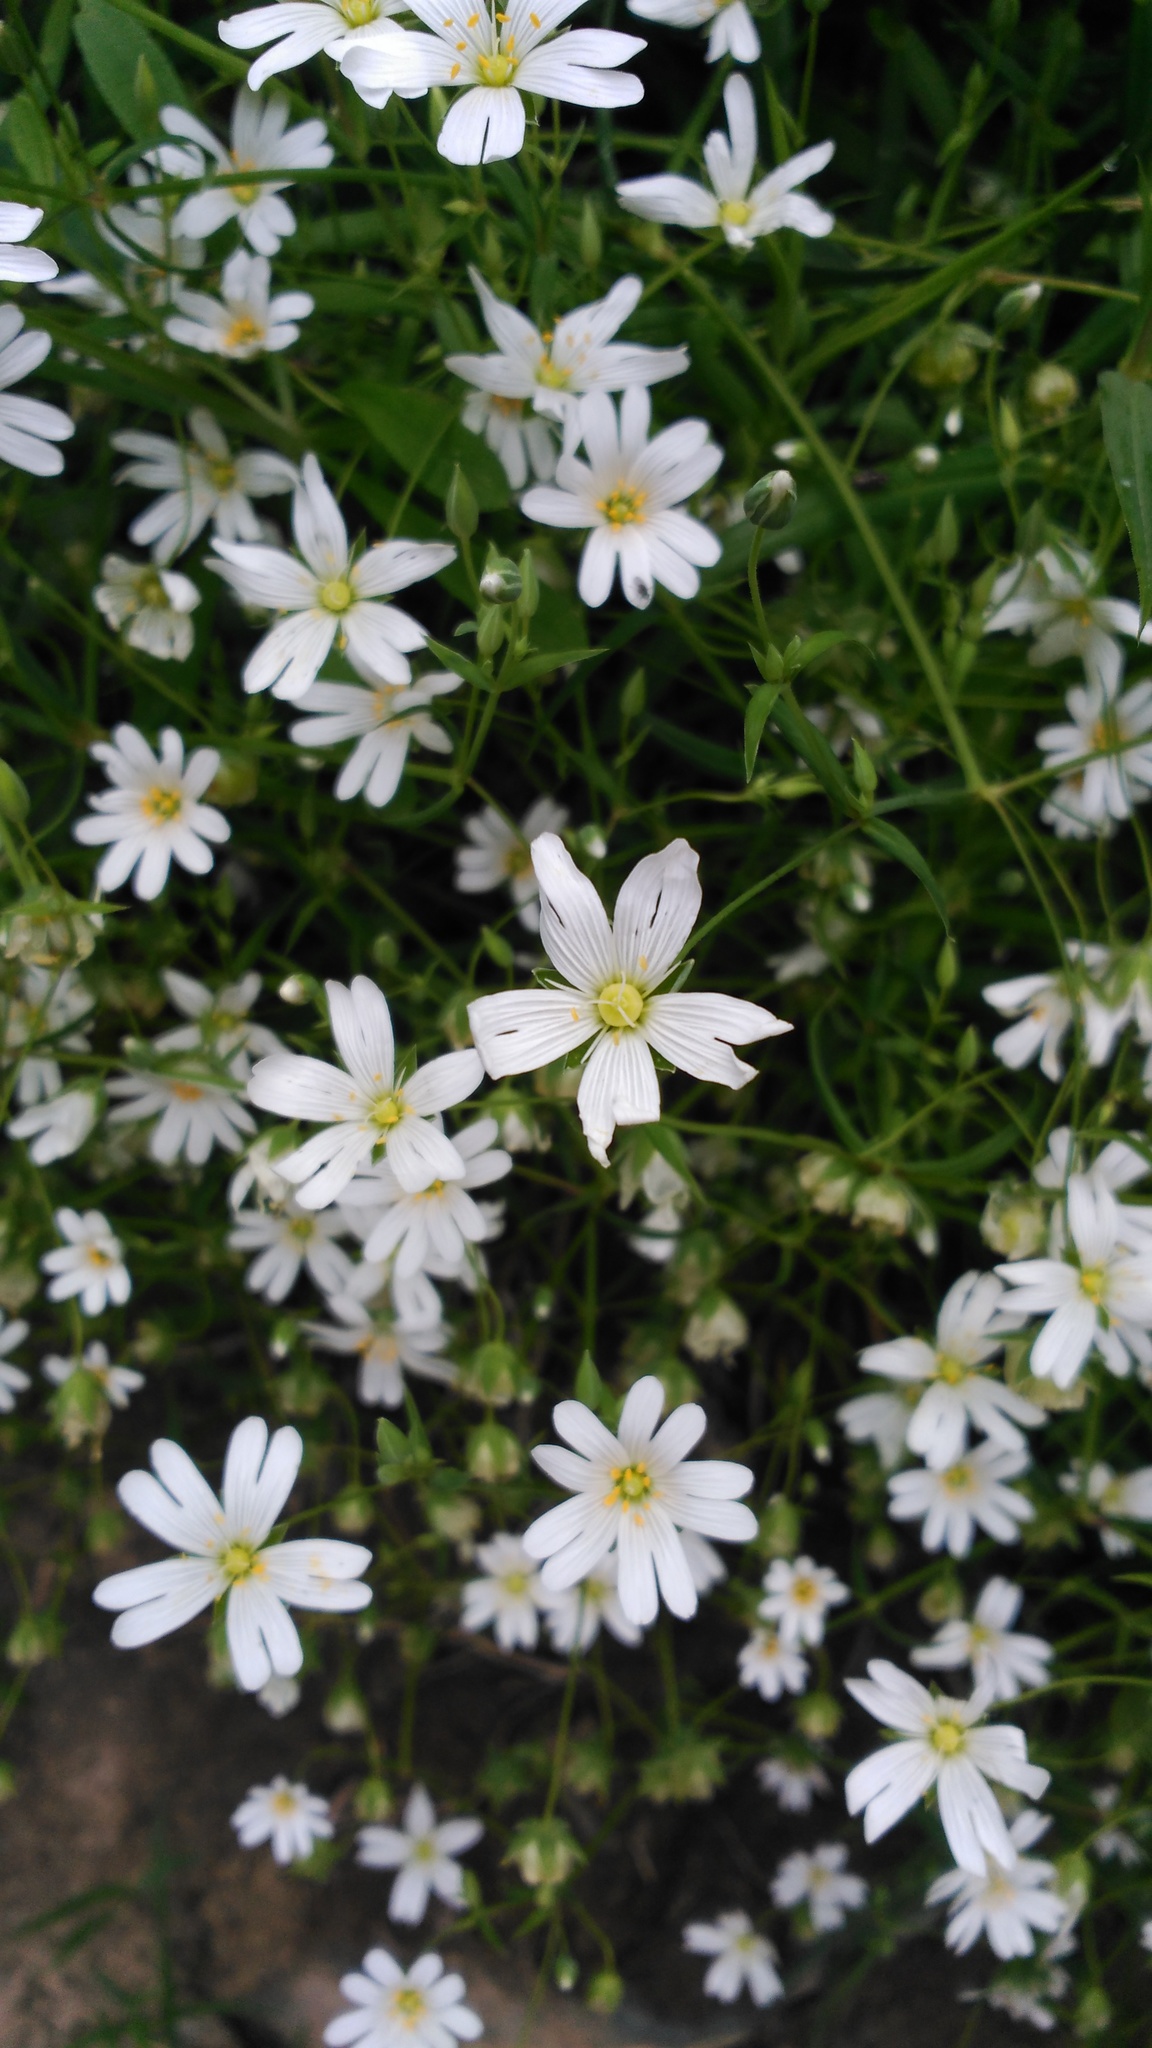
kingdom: Plantae
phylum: Tracheophyta
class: Magnoliopsida
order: Caryophyllales
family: Caryophyllaceae
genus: Rabelera
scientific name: Rabelera holostea
